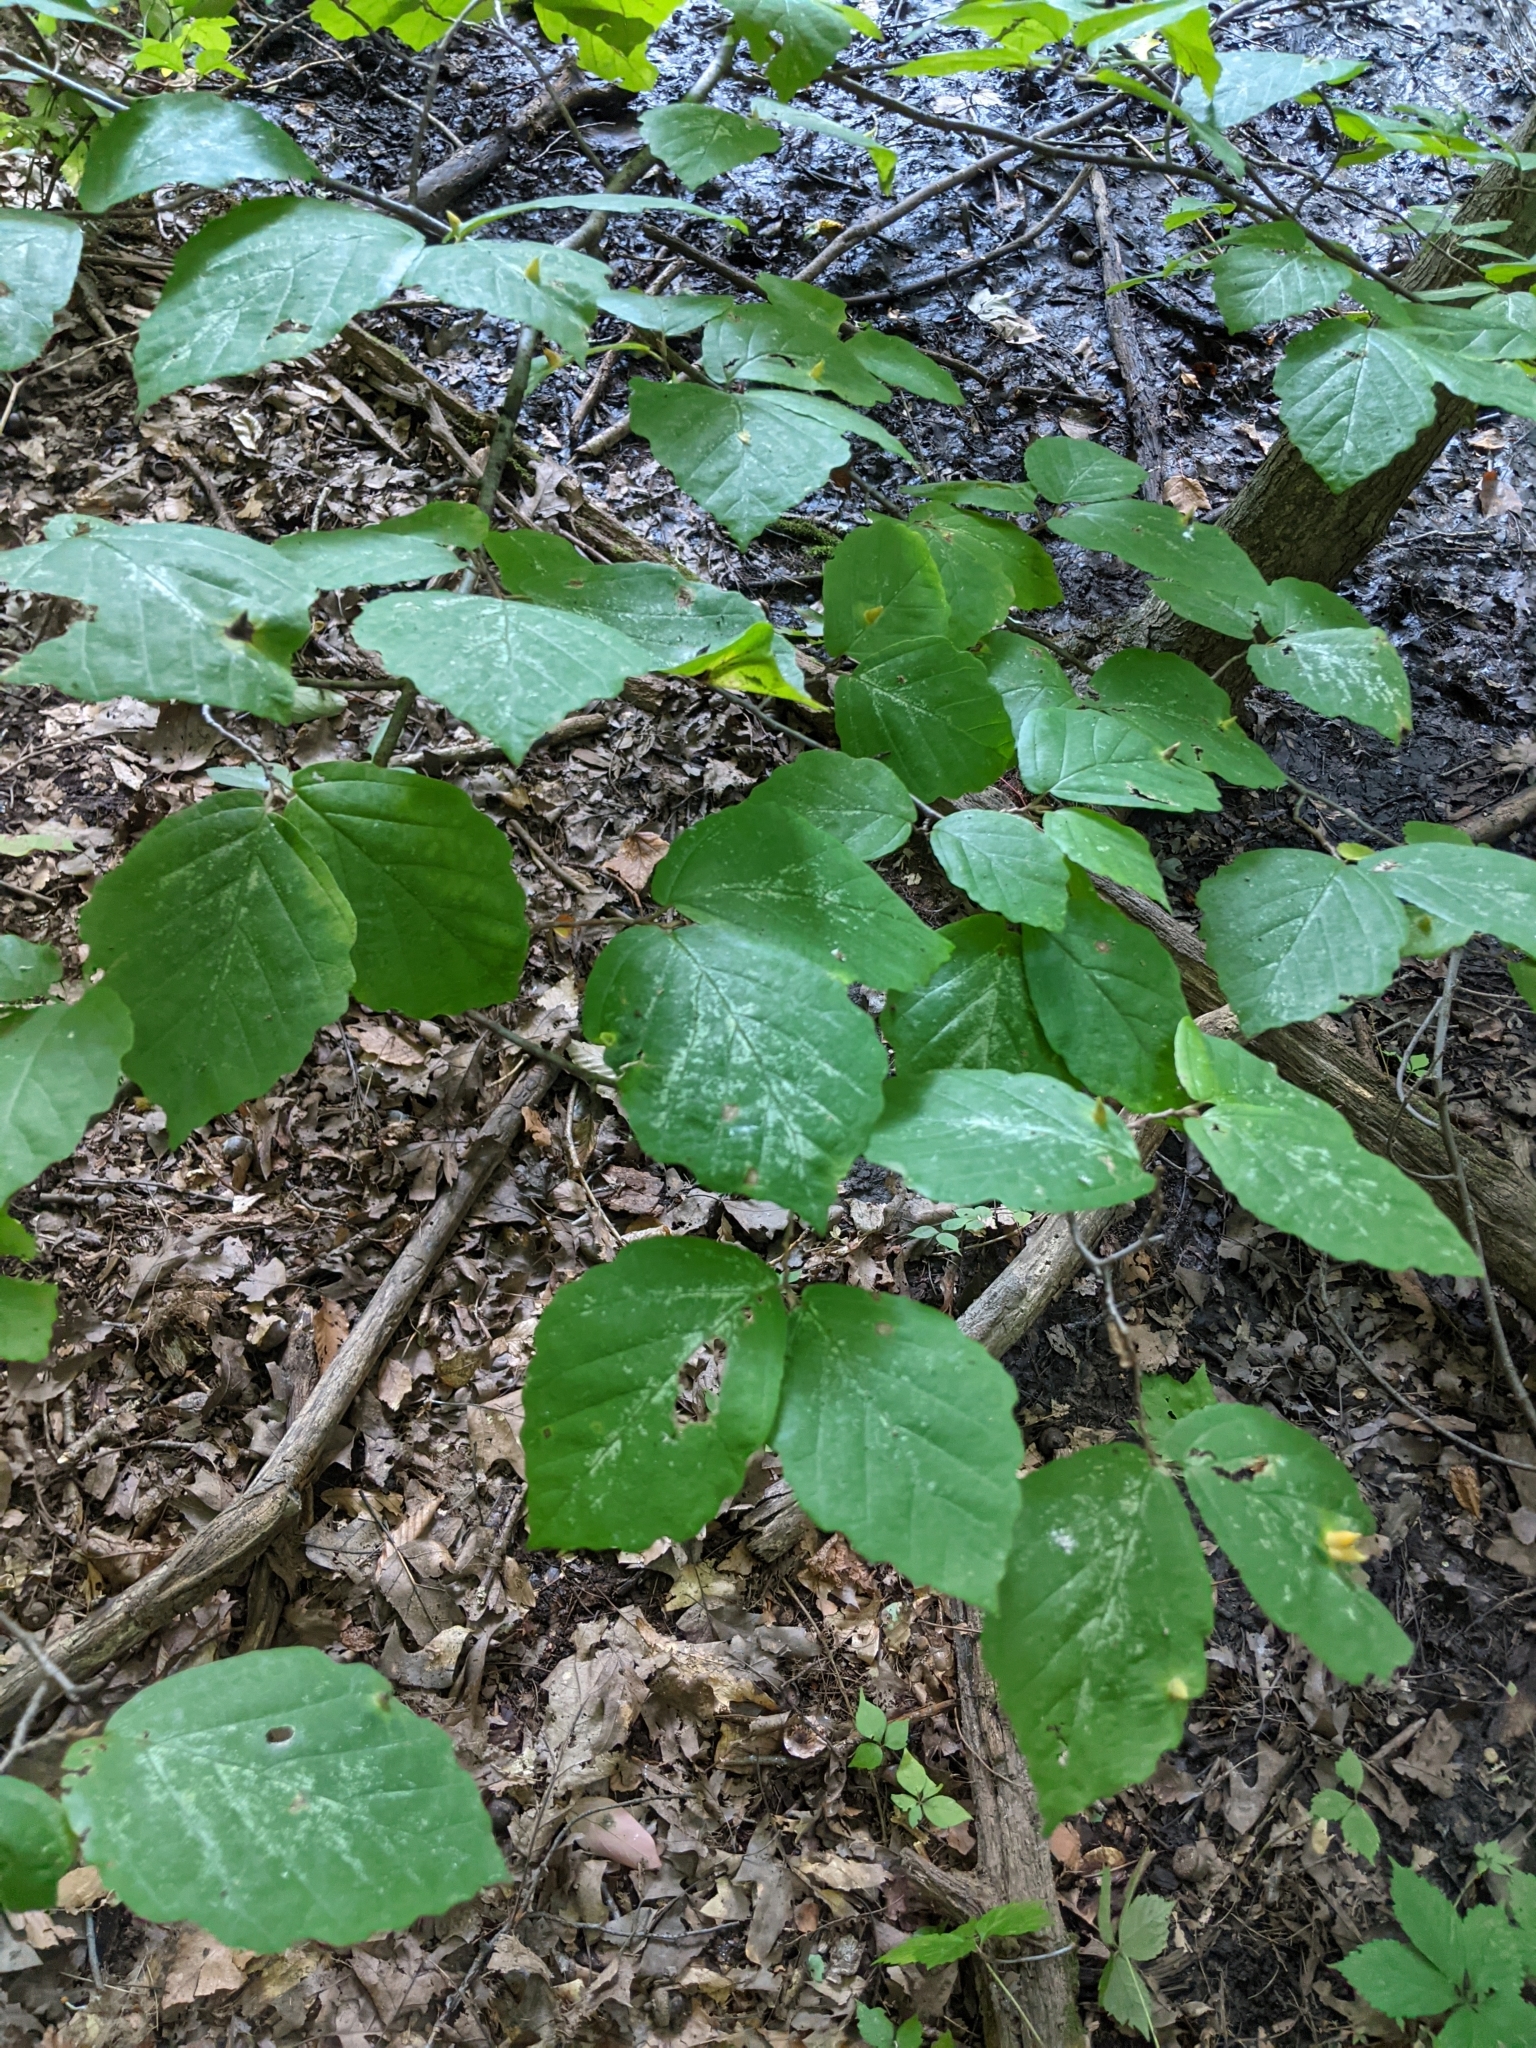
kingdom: Plantae
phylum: Tracheophyta
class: Magnoliopsida
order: Saxifragales
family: Hamamelidaceae
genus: Hamamelis
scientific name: Hamamelis virginiana
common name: Witch-hazel
